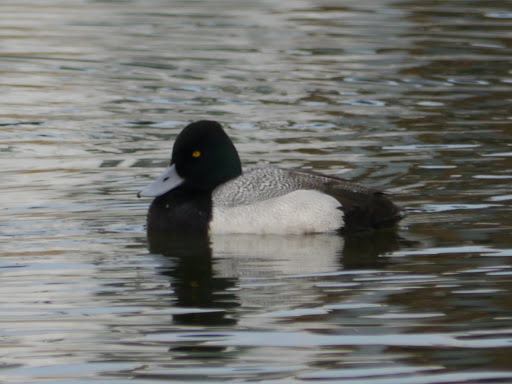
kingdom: Animalia
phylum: Chordata
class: Aves
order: Anseriformes
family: Anatidae
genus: Aythya
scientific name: Aythya affinis
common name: Lesser scaup
